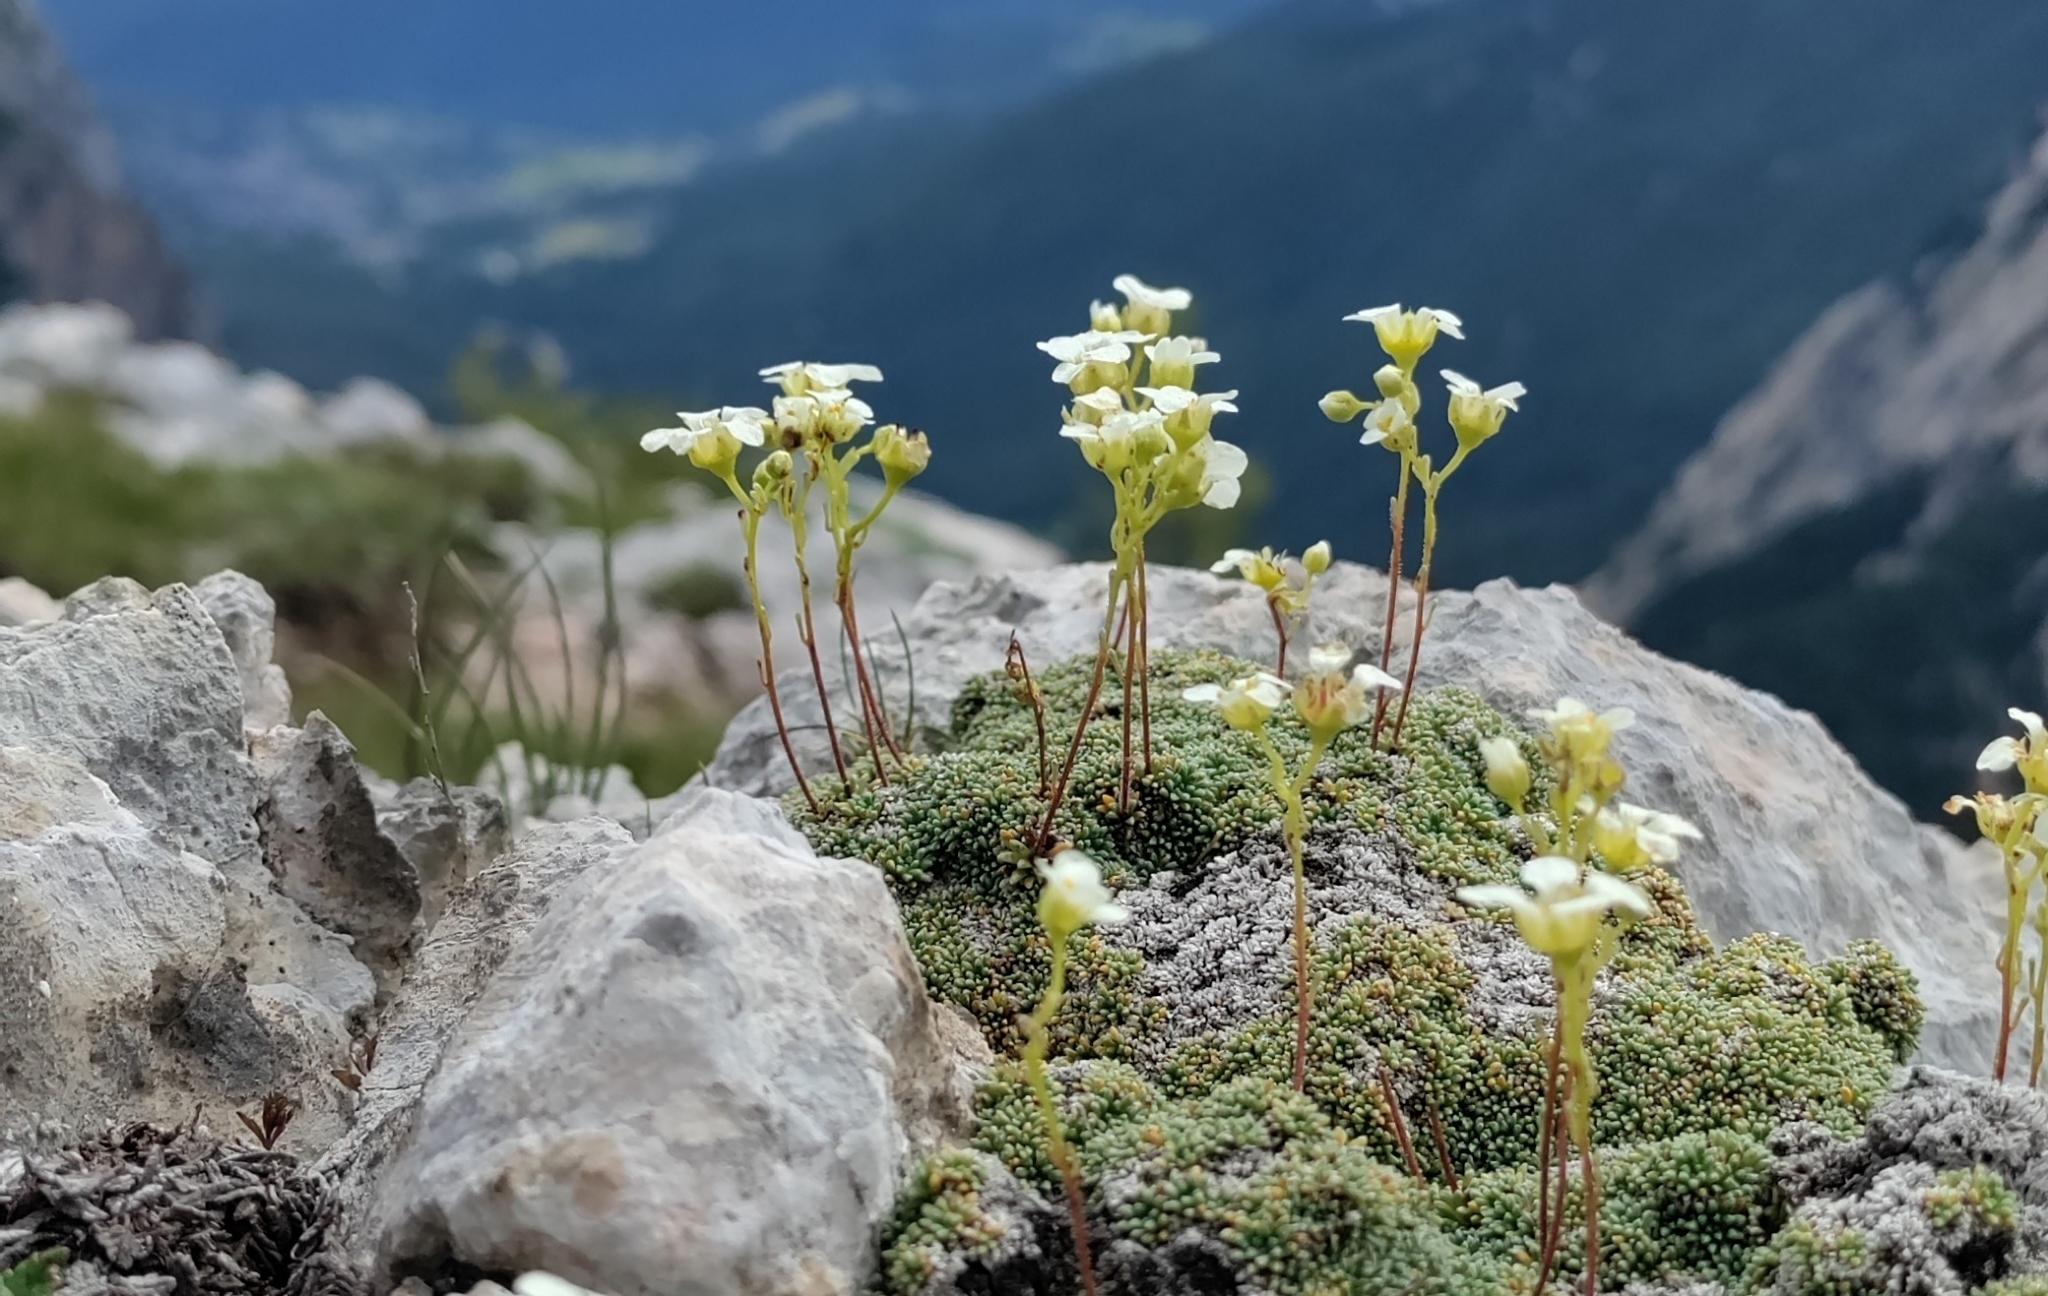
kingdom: Plantae
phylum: Tracheophyta
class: Magnoliopsida
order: Saxifragales
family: Saxifragaceae
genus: Saxifraga
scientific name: Saxifraga squarrosa
